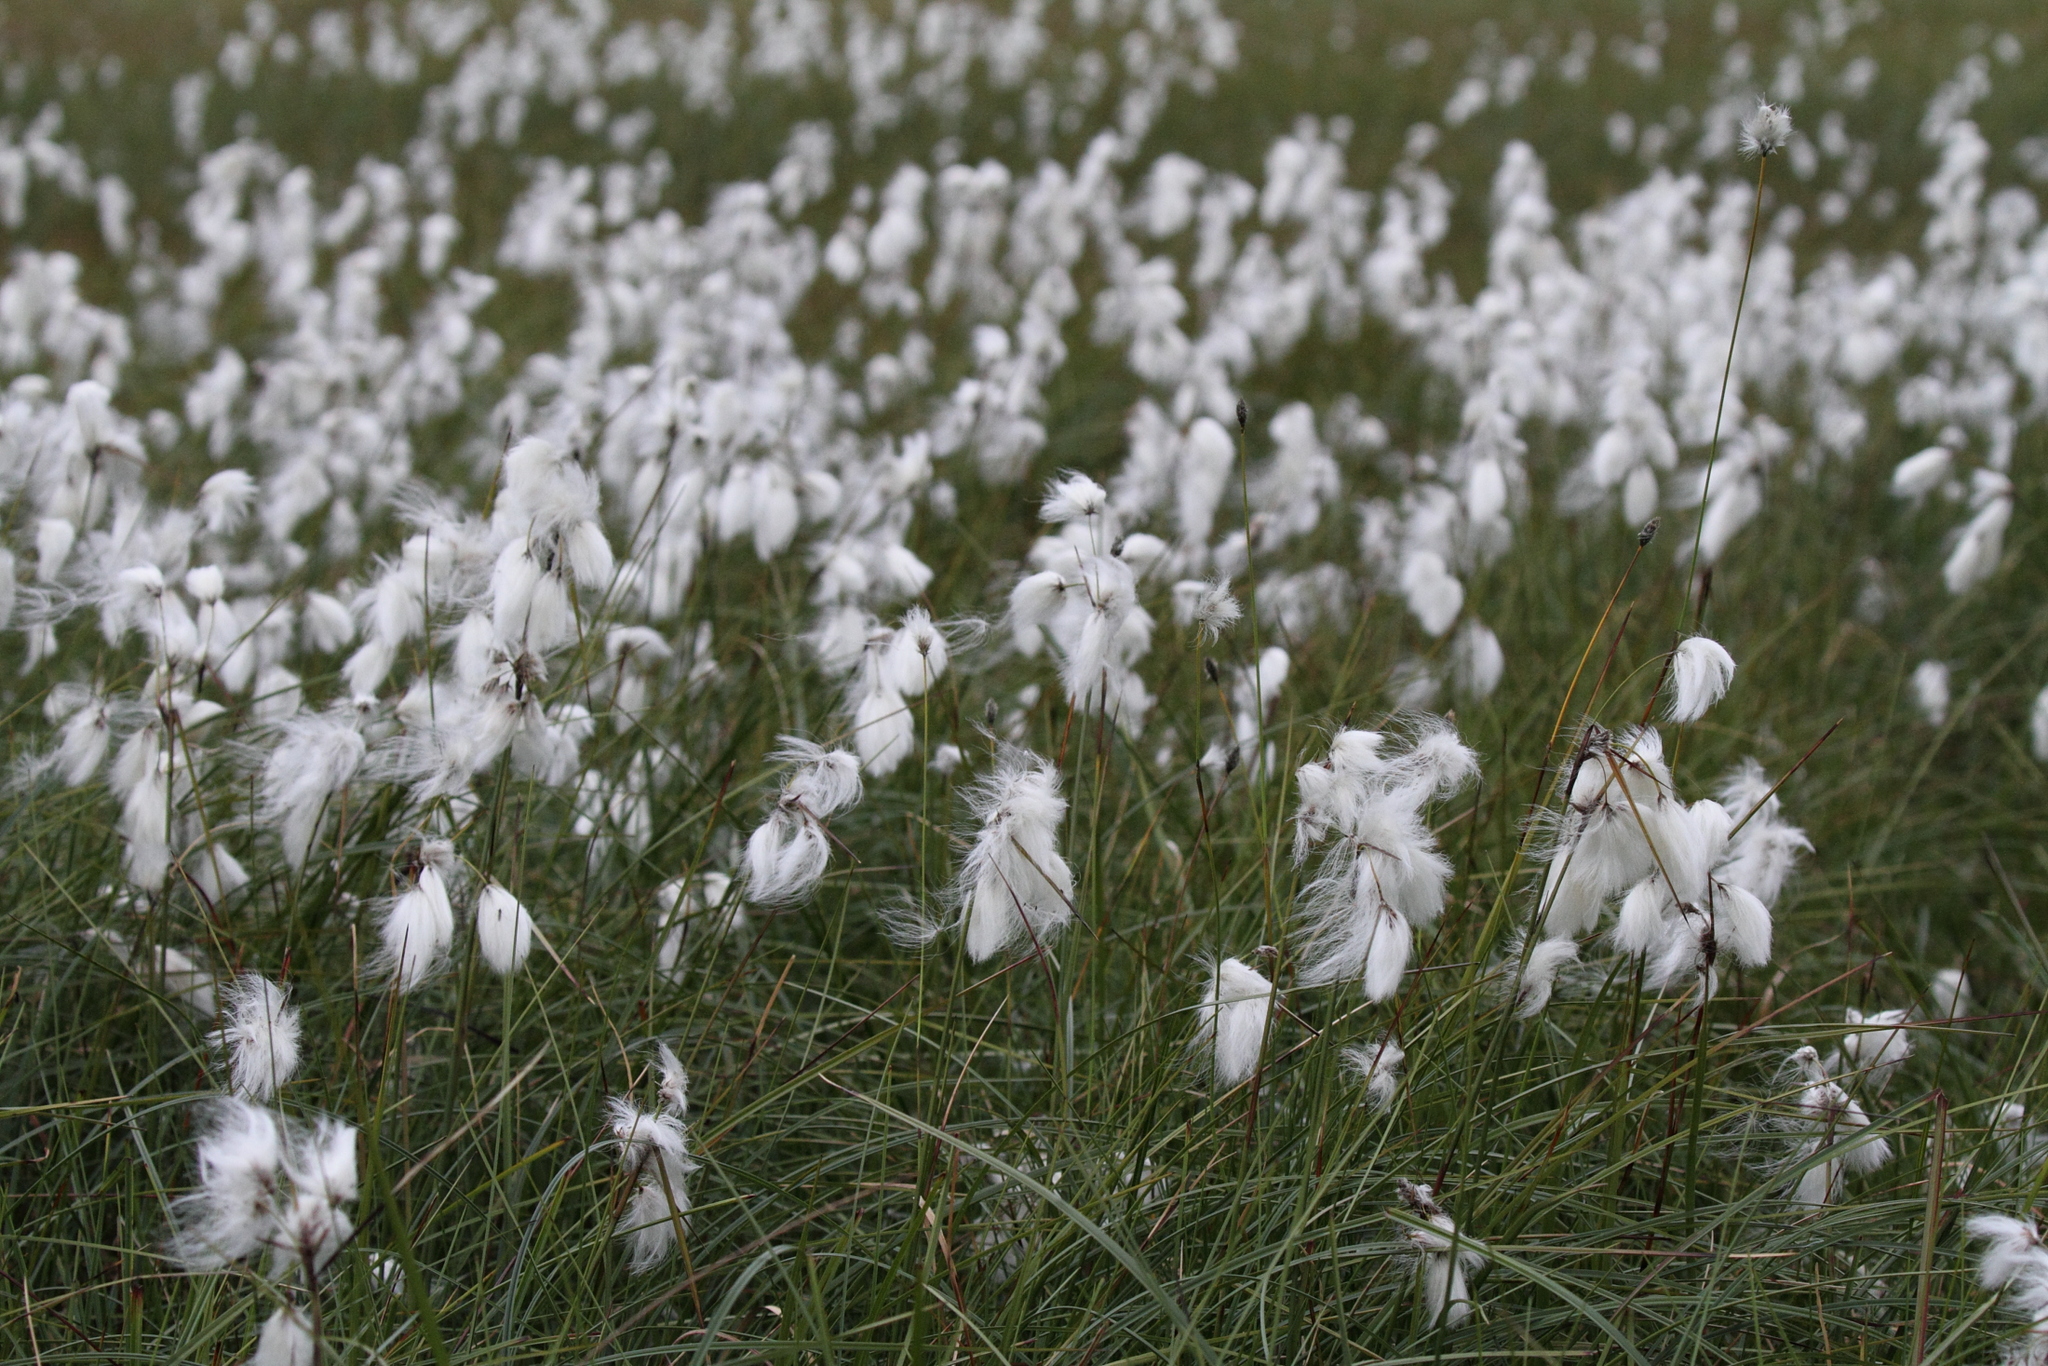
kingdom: Plantae
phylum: Tracheophyta
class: Liliopsida
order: Poales
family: Cyperaceae
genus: Eriophorum
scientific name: Eriophorum angustifolium
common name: Common cottongrass
